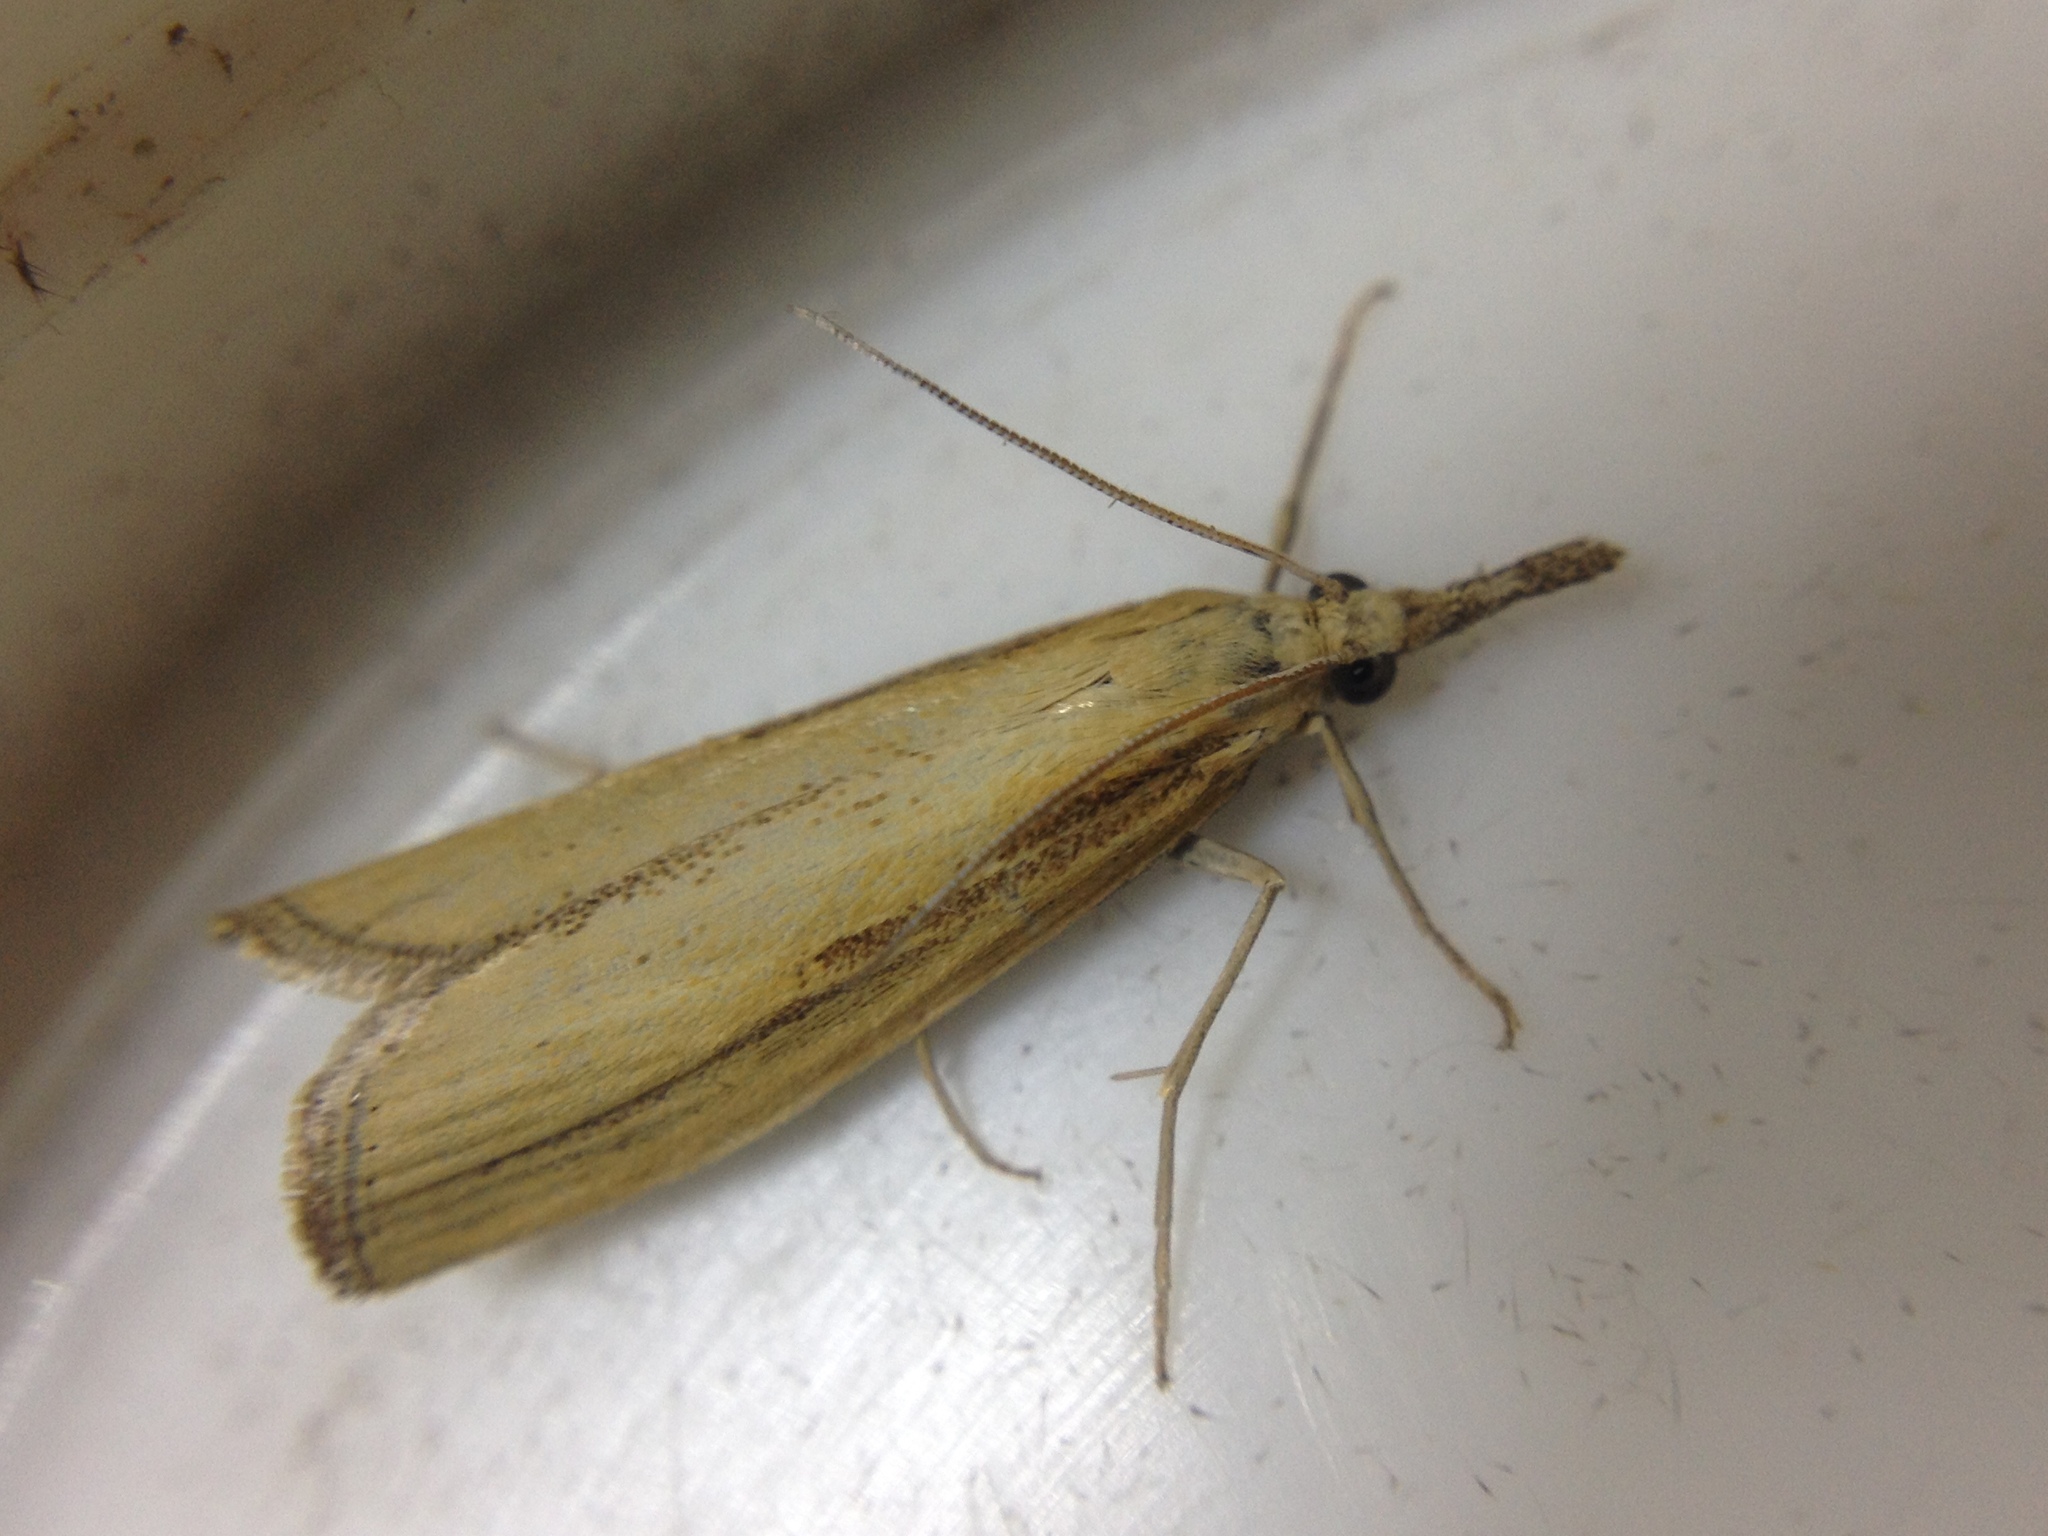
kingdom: Animalia
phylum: Arthropoda
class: Insecta
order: Lepidoptera
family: Crambidae
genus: Agriphila
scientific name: Agriphila tristellus
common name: Common grass-veneer
